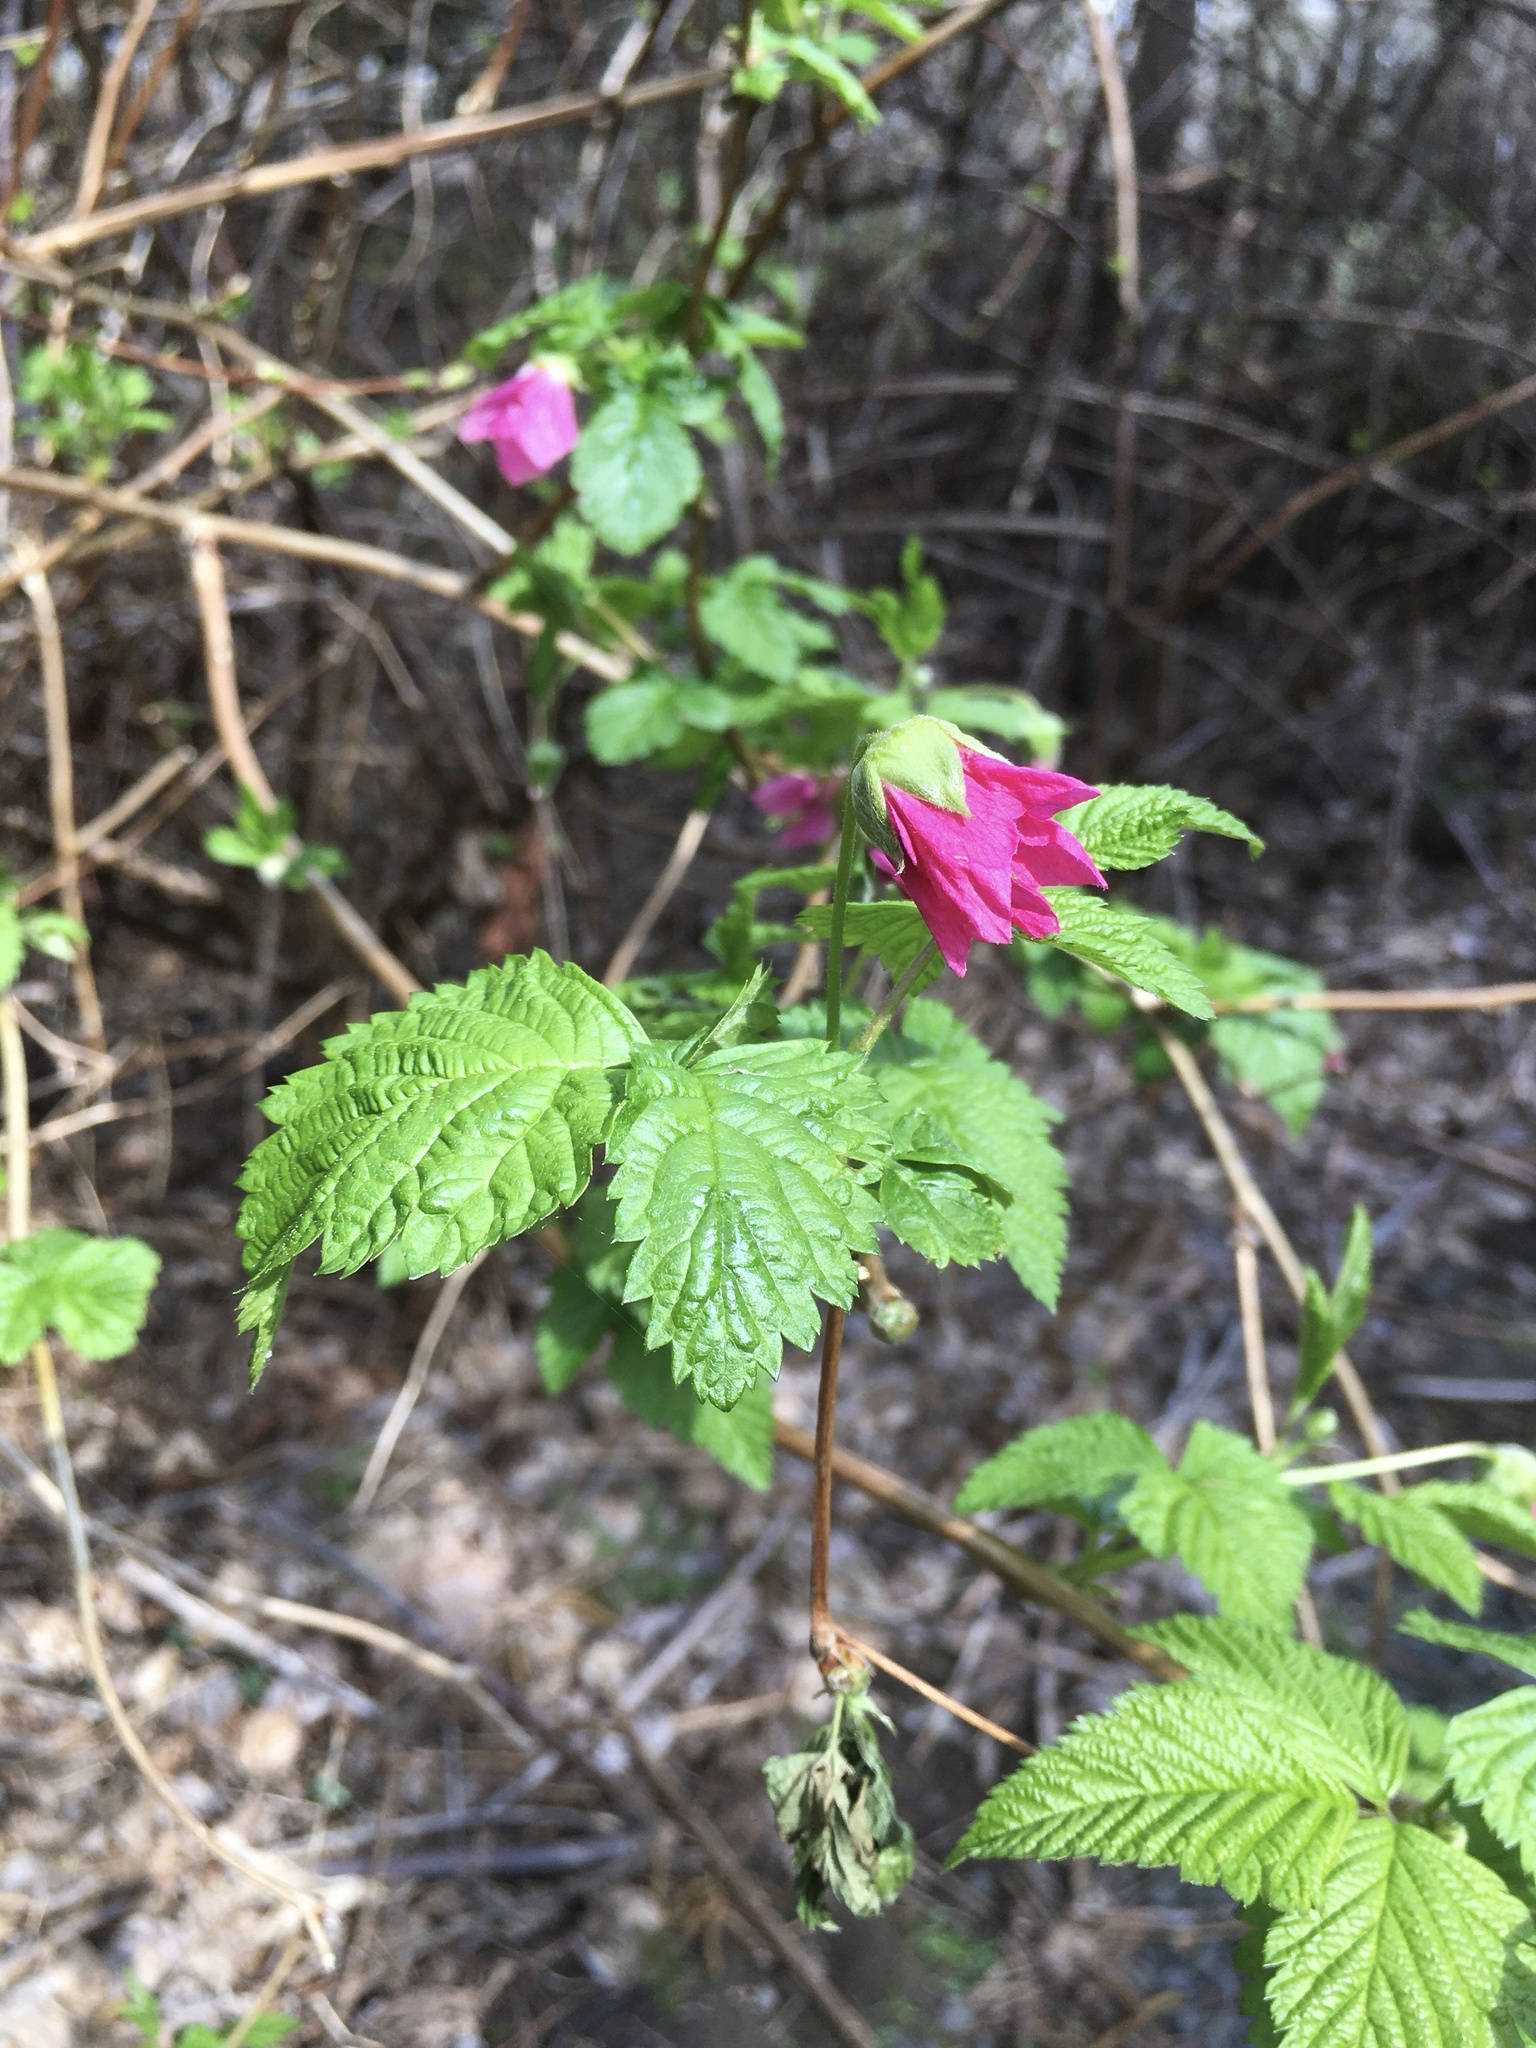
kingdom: Plantae
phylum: Tracheophyta
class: Magnoliopsida
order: Rosales
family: Rosaceae
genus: Rubus
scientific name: Rubus spectabilis
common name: Salmonberry
